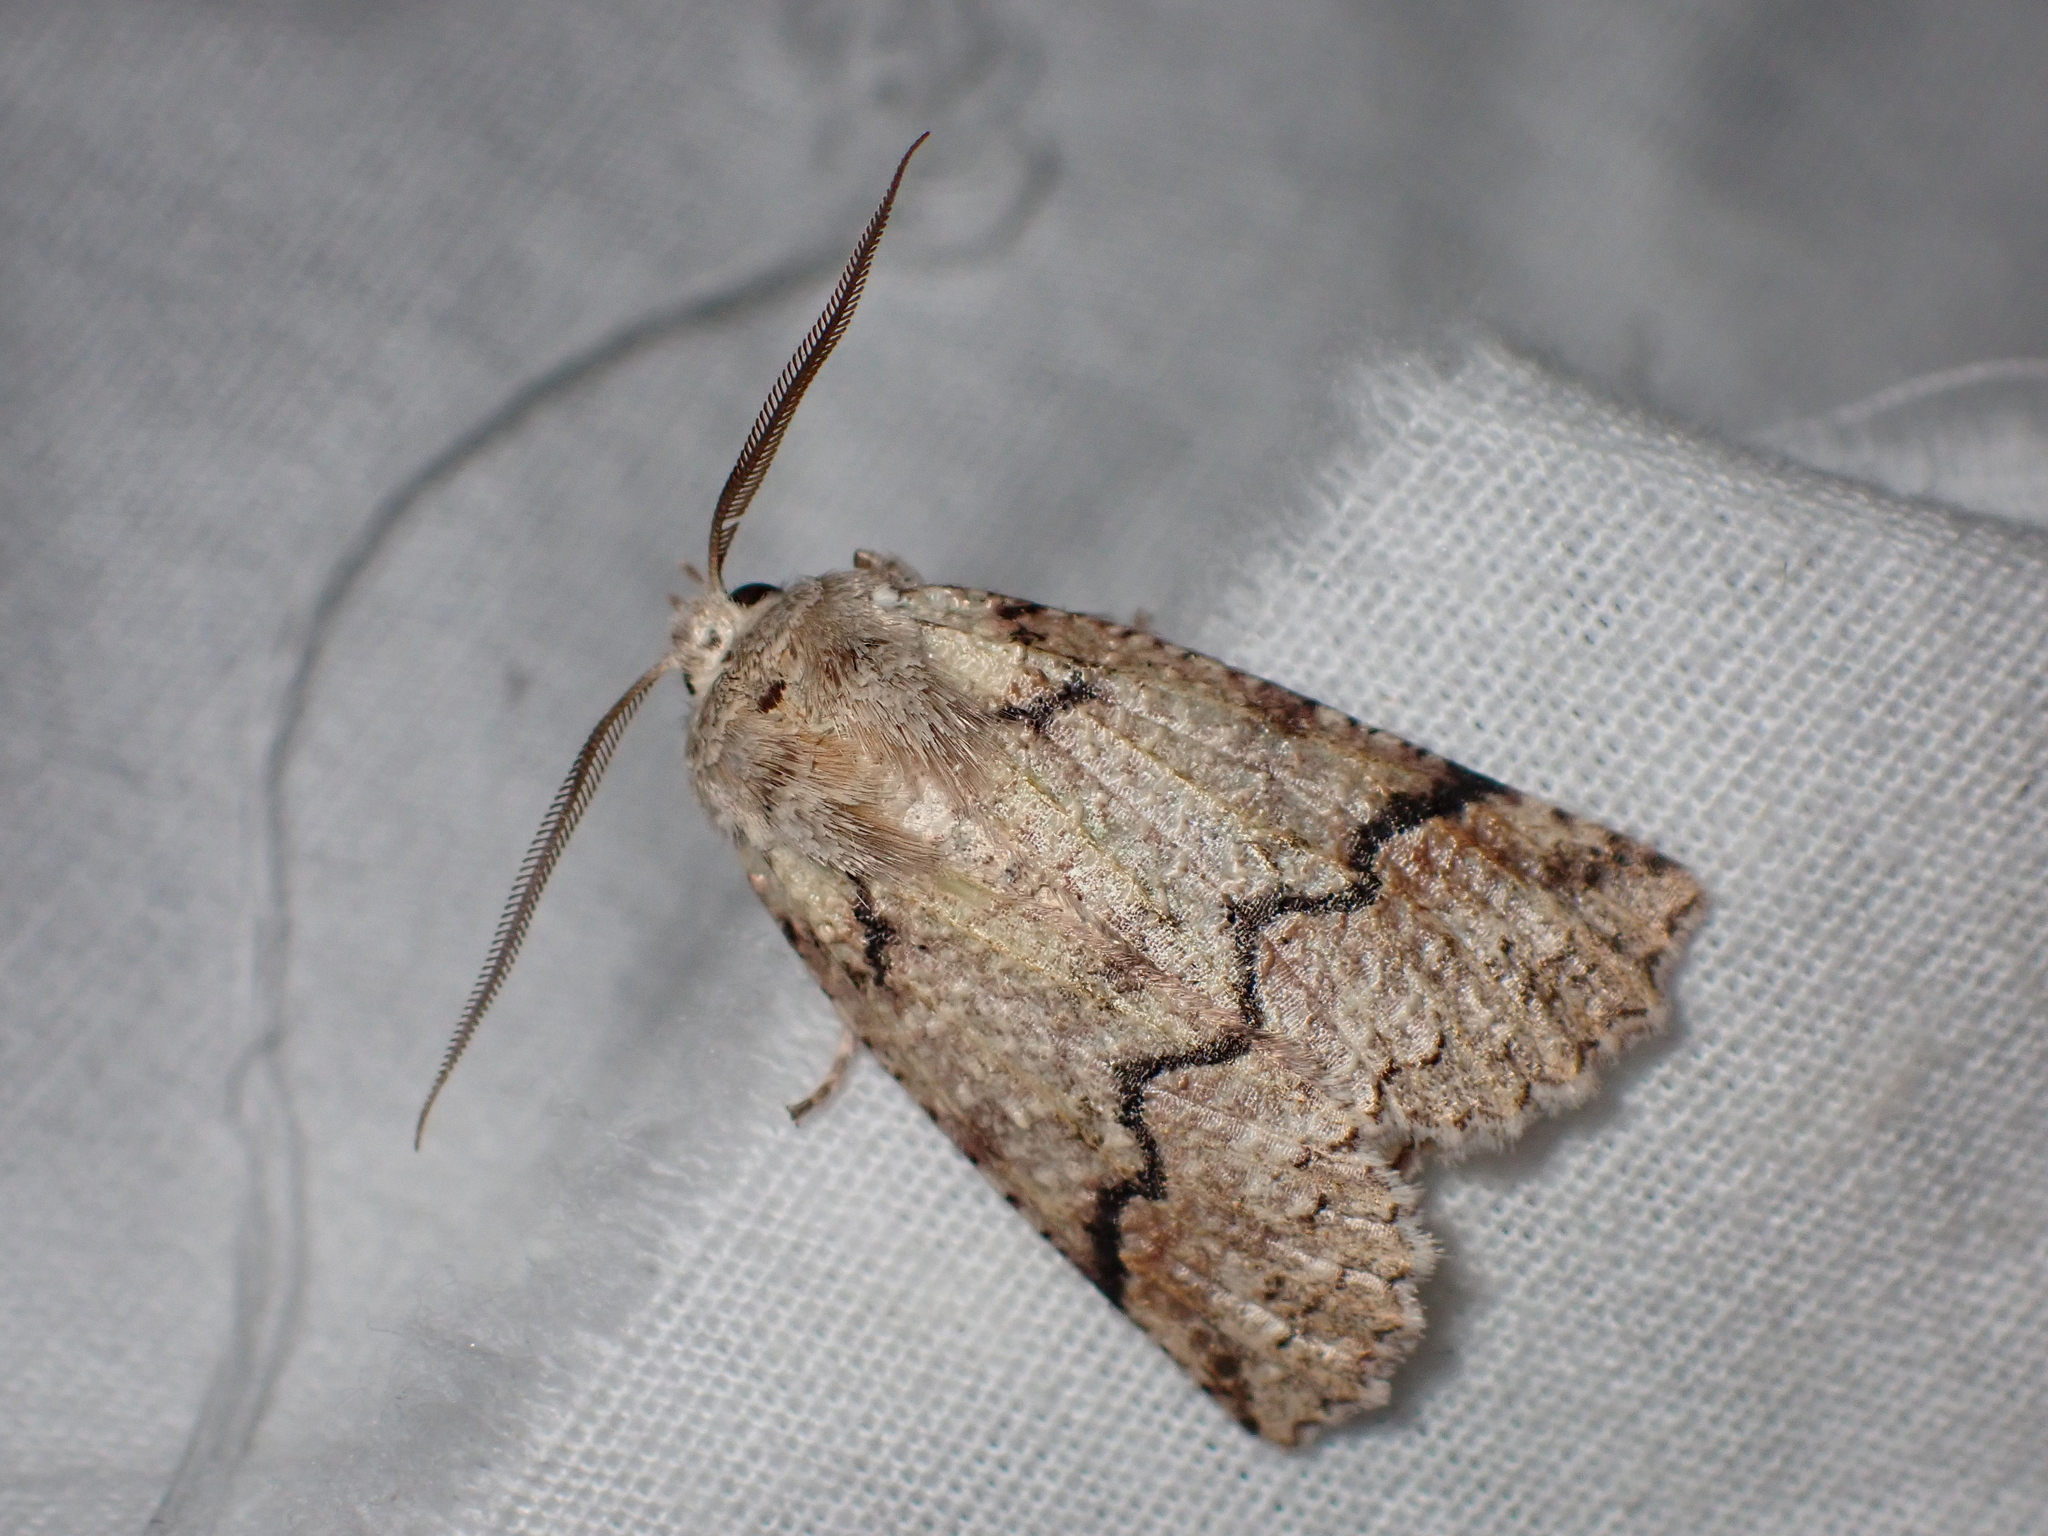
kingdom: Animalia
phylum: Arthropoda
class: Insecta
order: Lepidoptera
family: Geometridae
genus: Declana
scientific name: Declana floccosa
